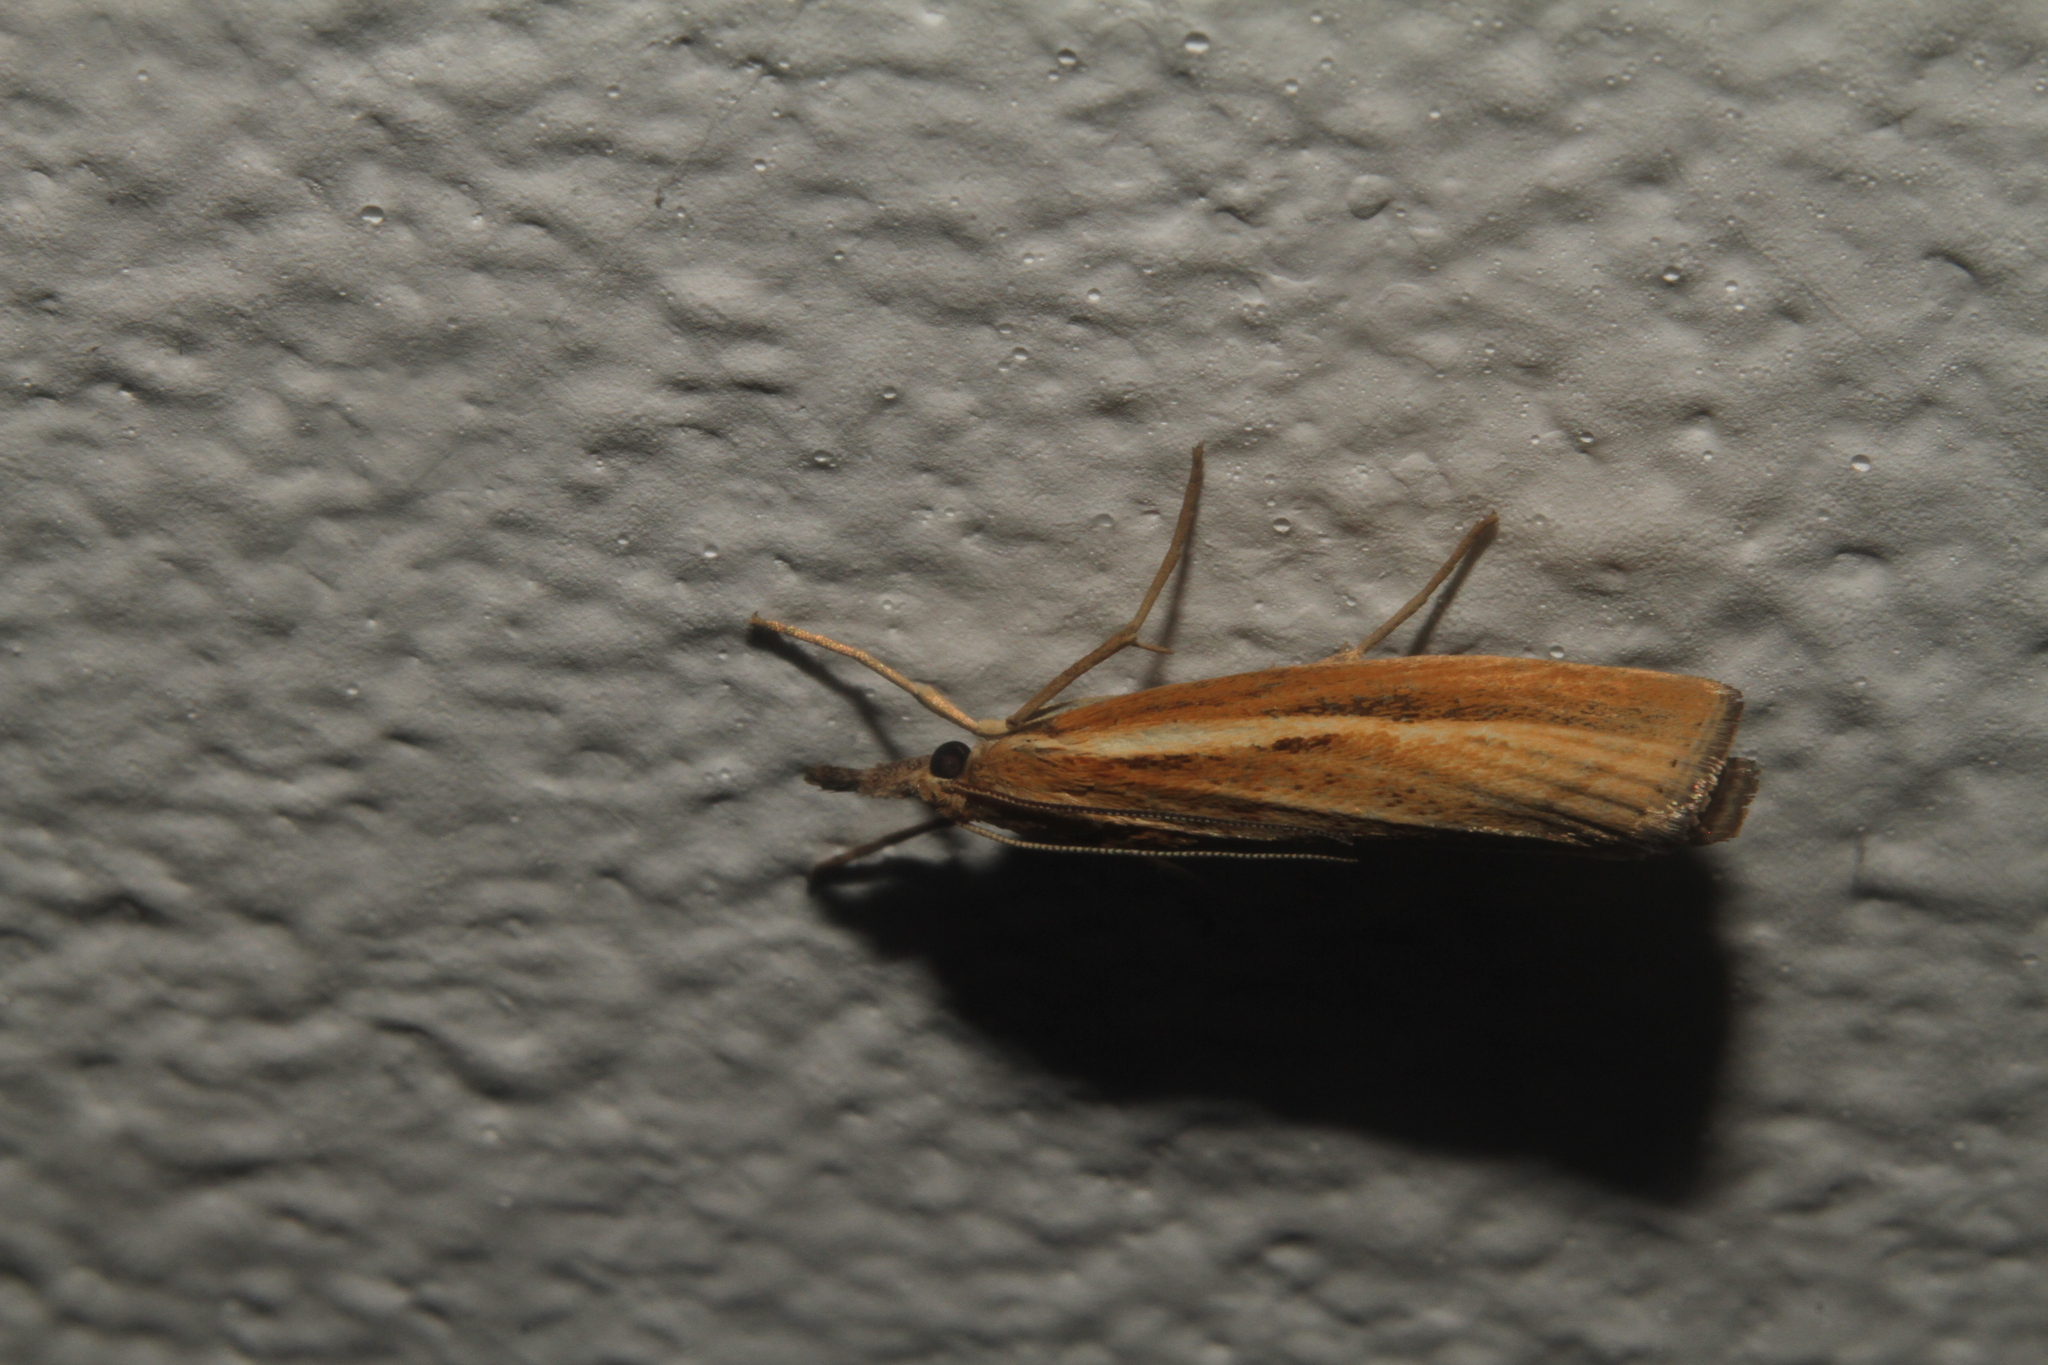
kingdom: Animalia
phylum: Arthropoda
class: Insecta
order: Lepidoptera
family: Crambidae
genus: Agriphila
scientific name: Agriphila tristellus
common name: Common grass-veneer
